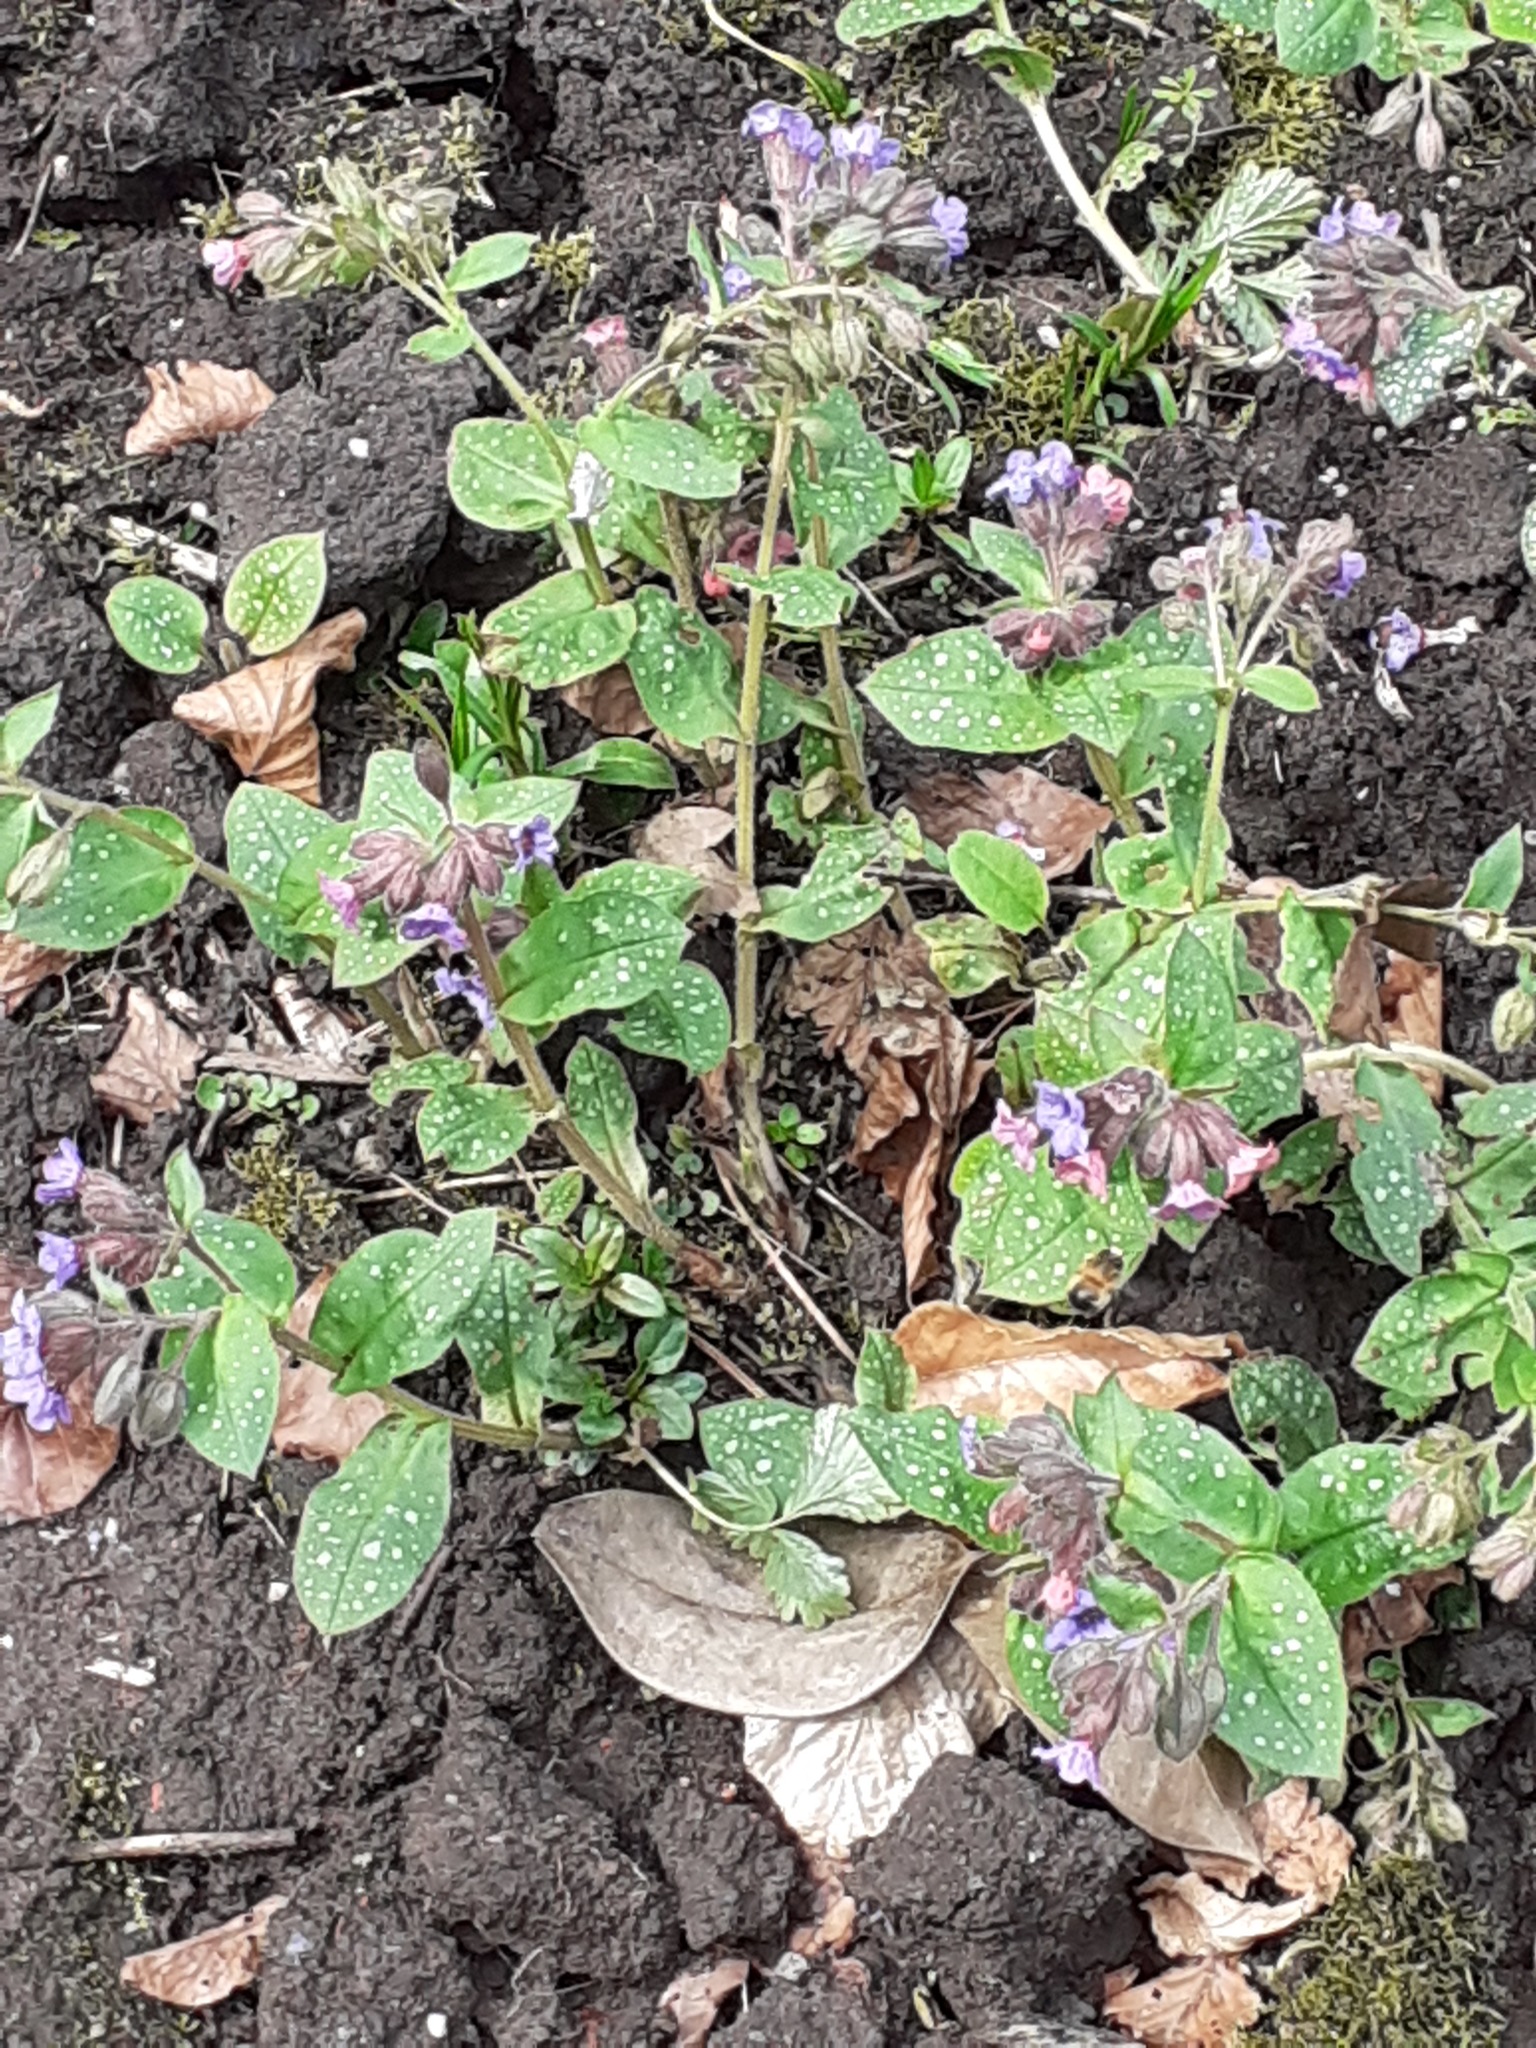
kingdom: Plantae
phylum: Tracheophyta
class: Magnoliopsida
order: Boraginales
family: Boraginaceae
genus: Pulmonaria
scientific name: Pulmonaria officinalis
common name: Lungwort
